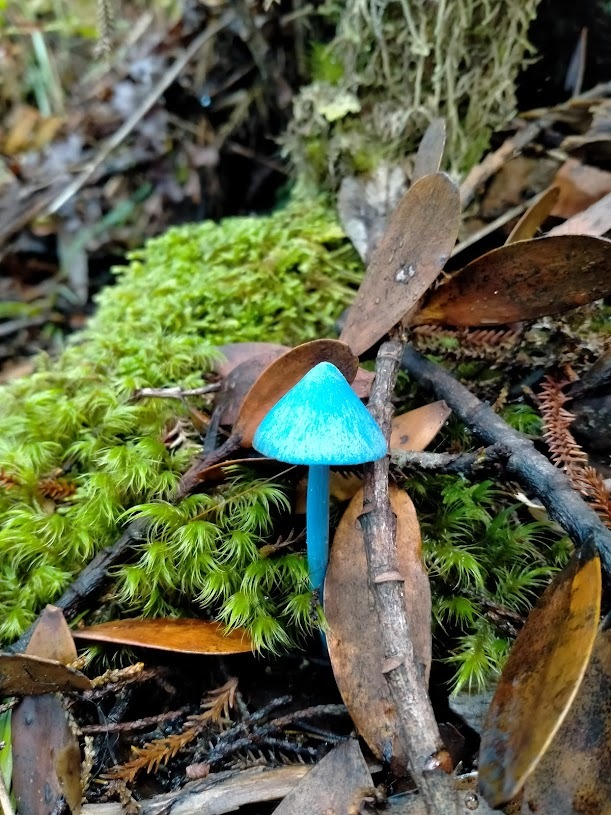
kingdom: Fungi
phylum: Basidiomycota
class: Agaricomycetes
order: Agaricales
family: Entolomataceae
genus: Entoloma
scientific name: Entoloma hochstetteri
